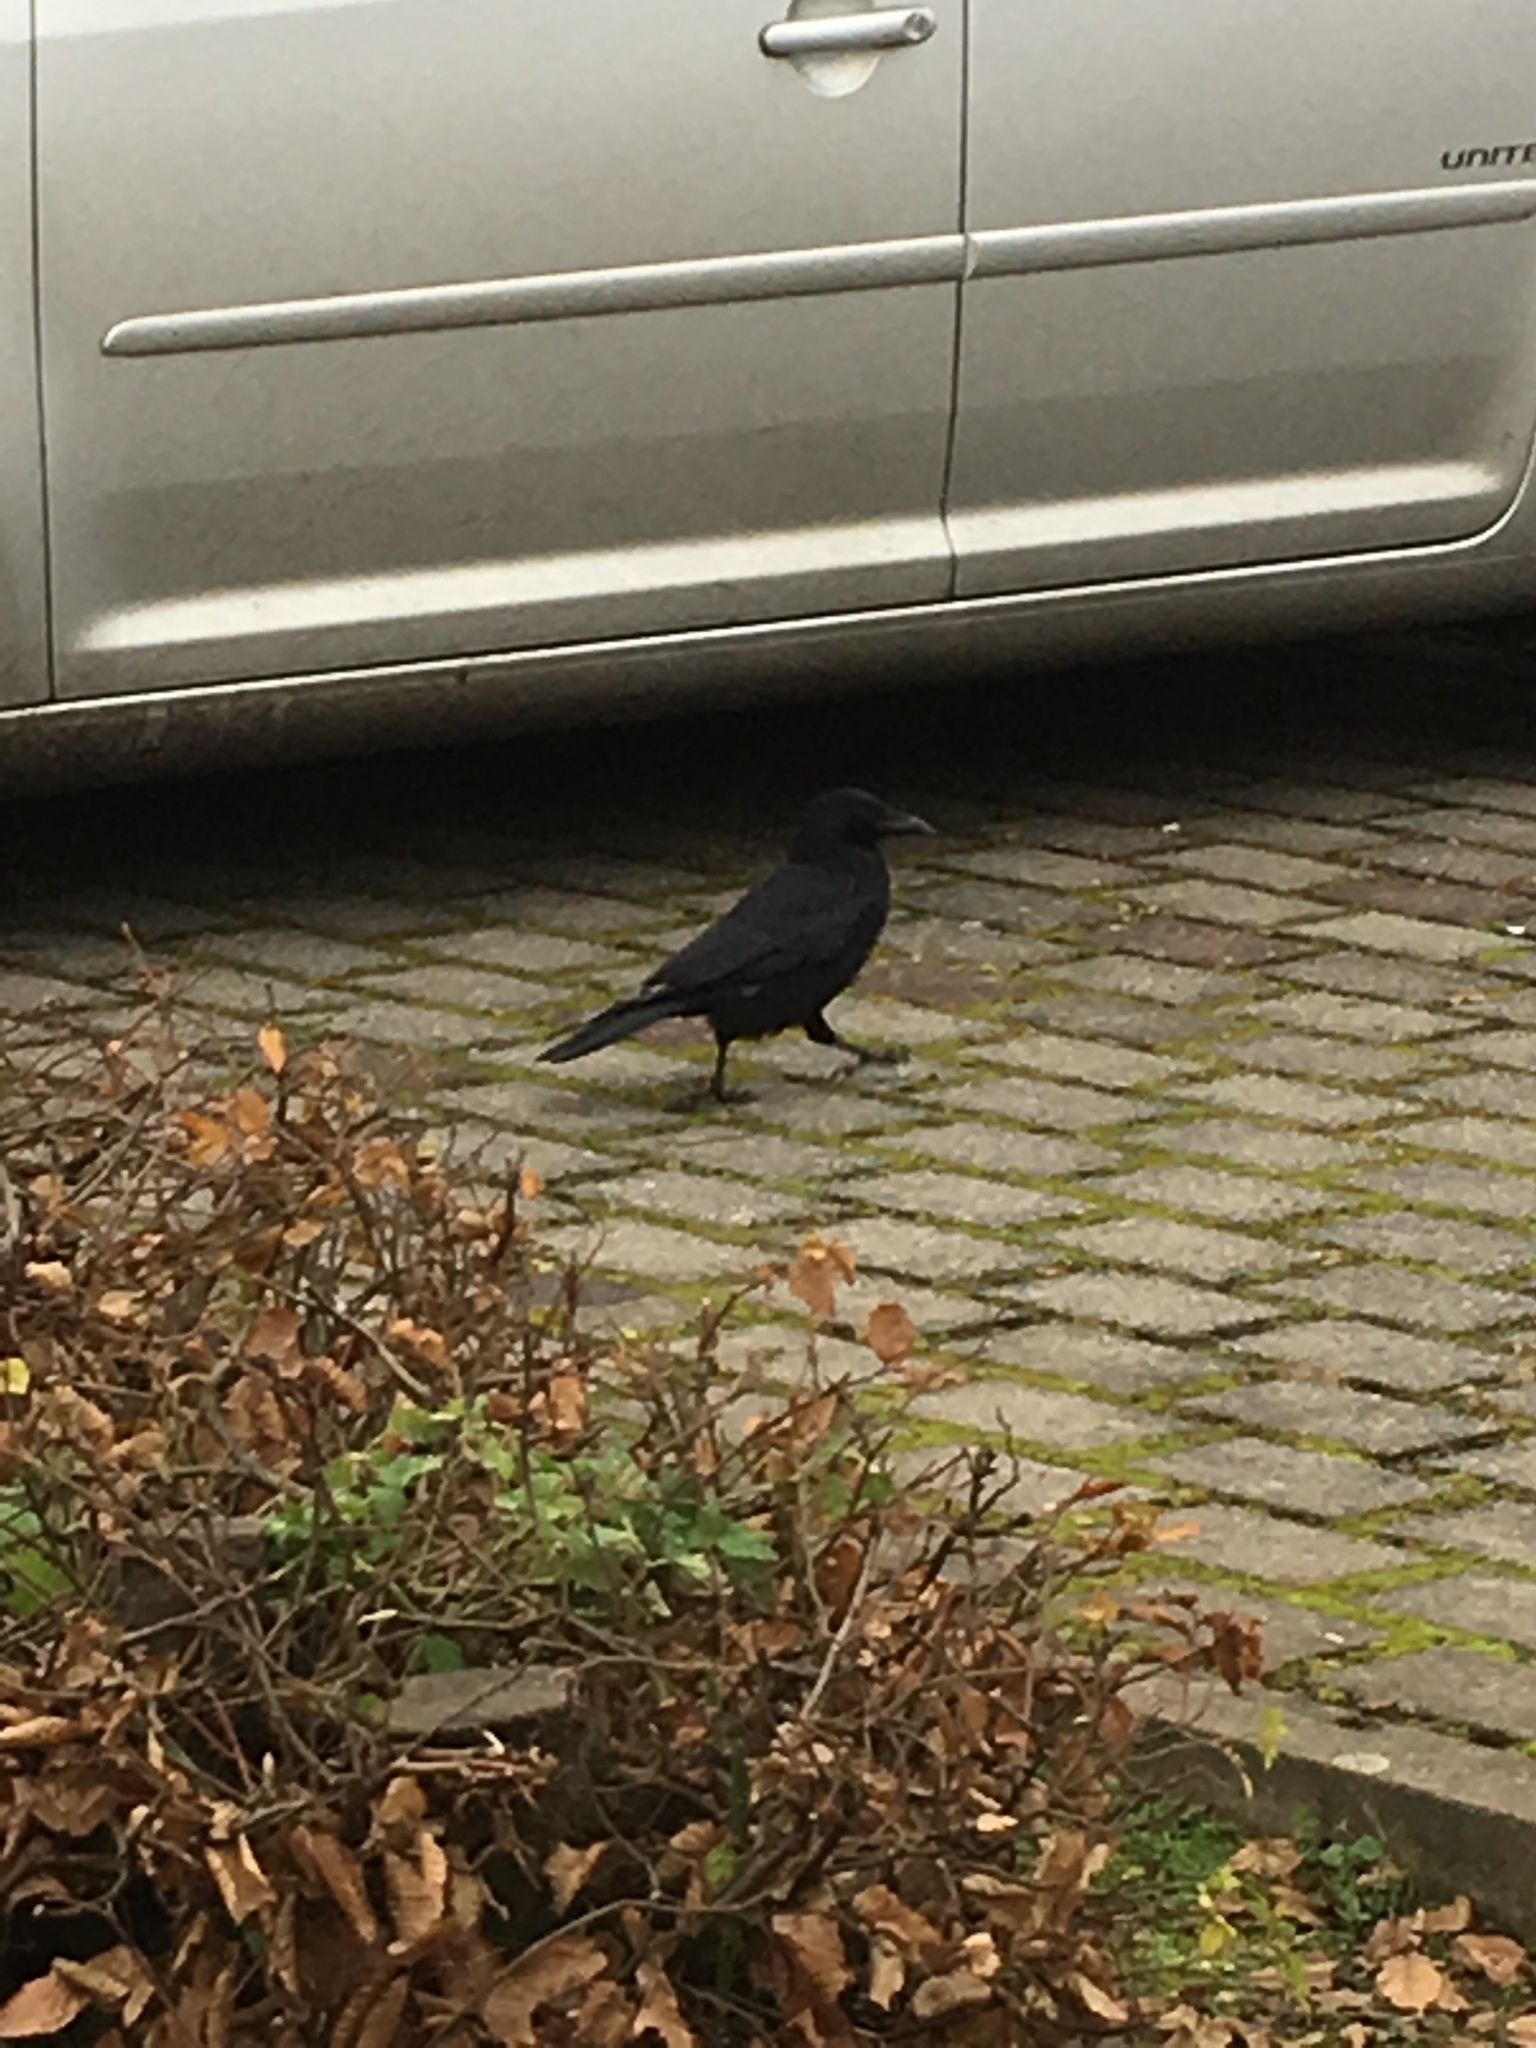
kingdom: Animalia
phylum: Chordata
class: Aves
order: Passeriformes
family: Corvidae
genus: Corvus
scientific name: Corvus corone
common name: Carrion crow
